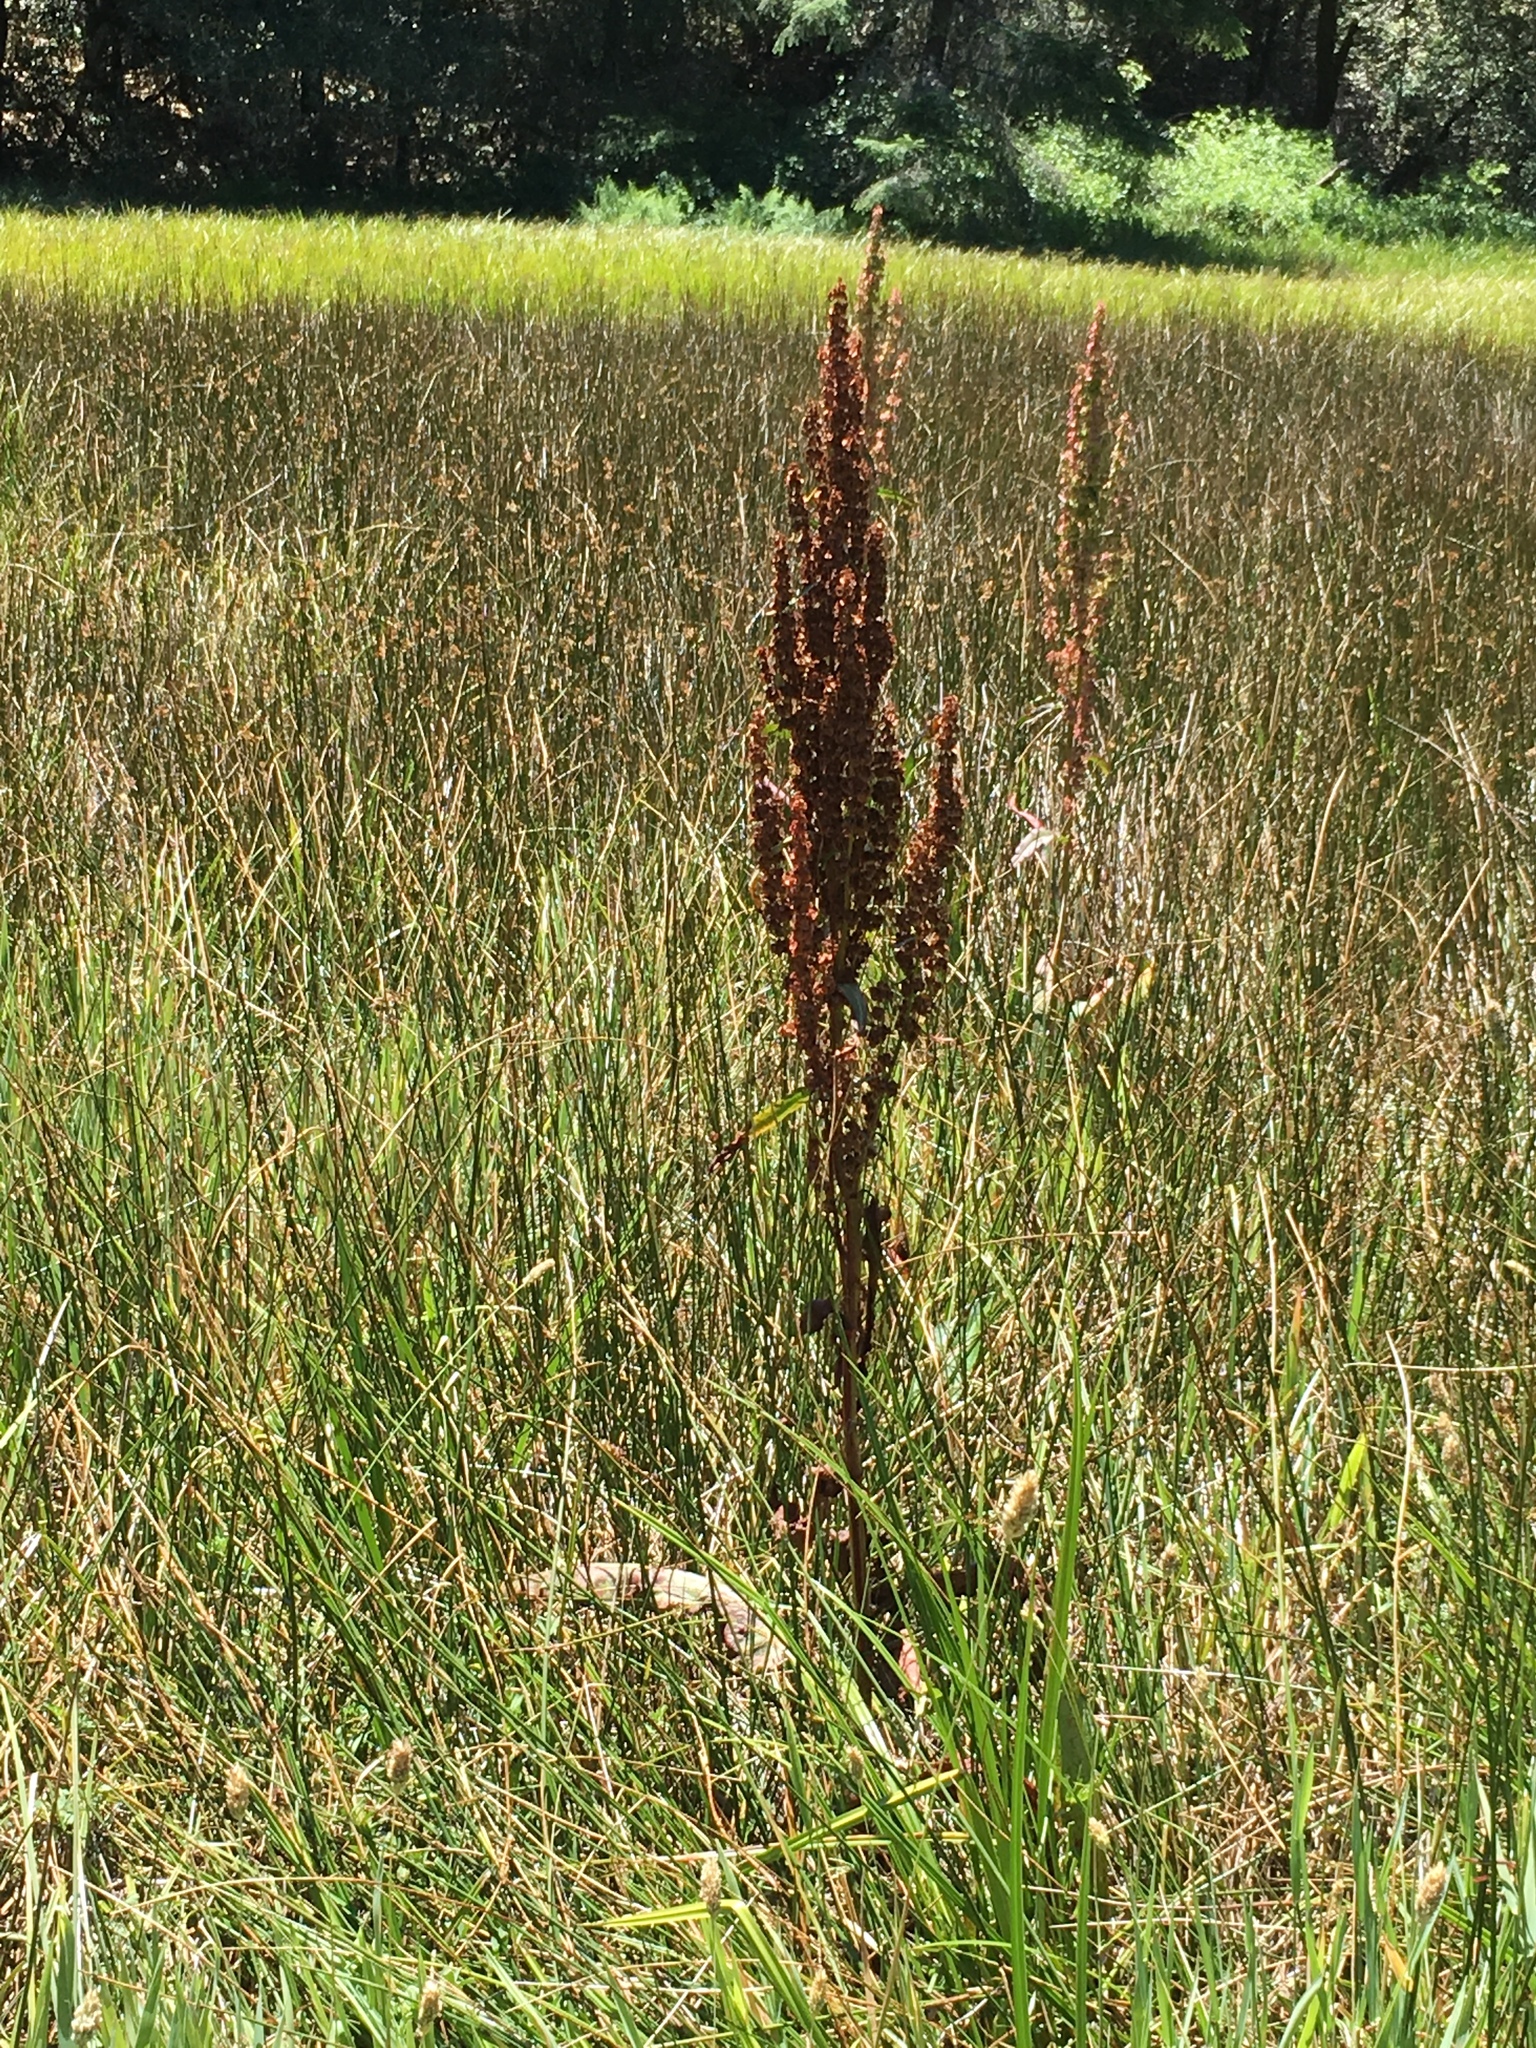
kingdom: Plantae
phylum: Tracheophyta
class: Magnoliopsida
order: Caryophyllales
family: Polygonaceae
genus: Rumex
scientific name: Rumex crispus
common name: Curled dock
